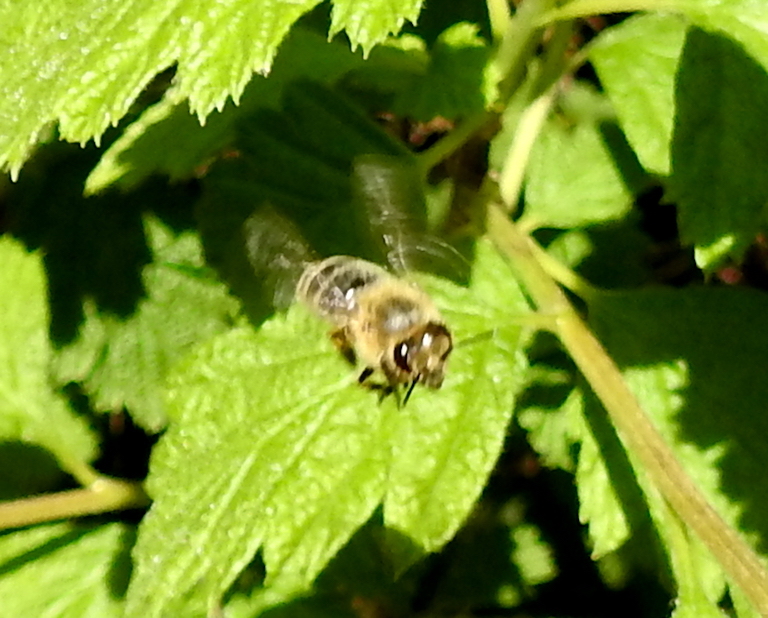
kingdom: Animalia
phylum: Arthropoda
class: Insecta
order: Hymenoptera
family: Apidae
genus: Apis
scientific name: Apis mellifera
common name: Honey bee
